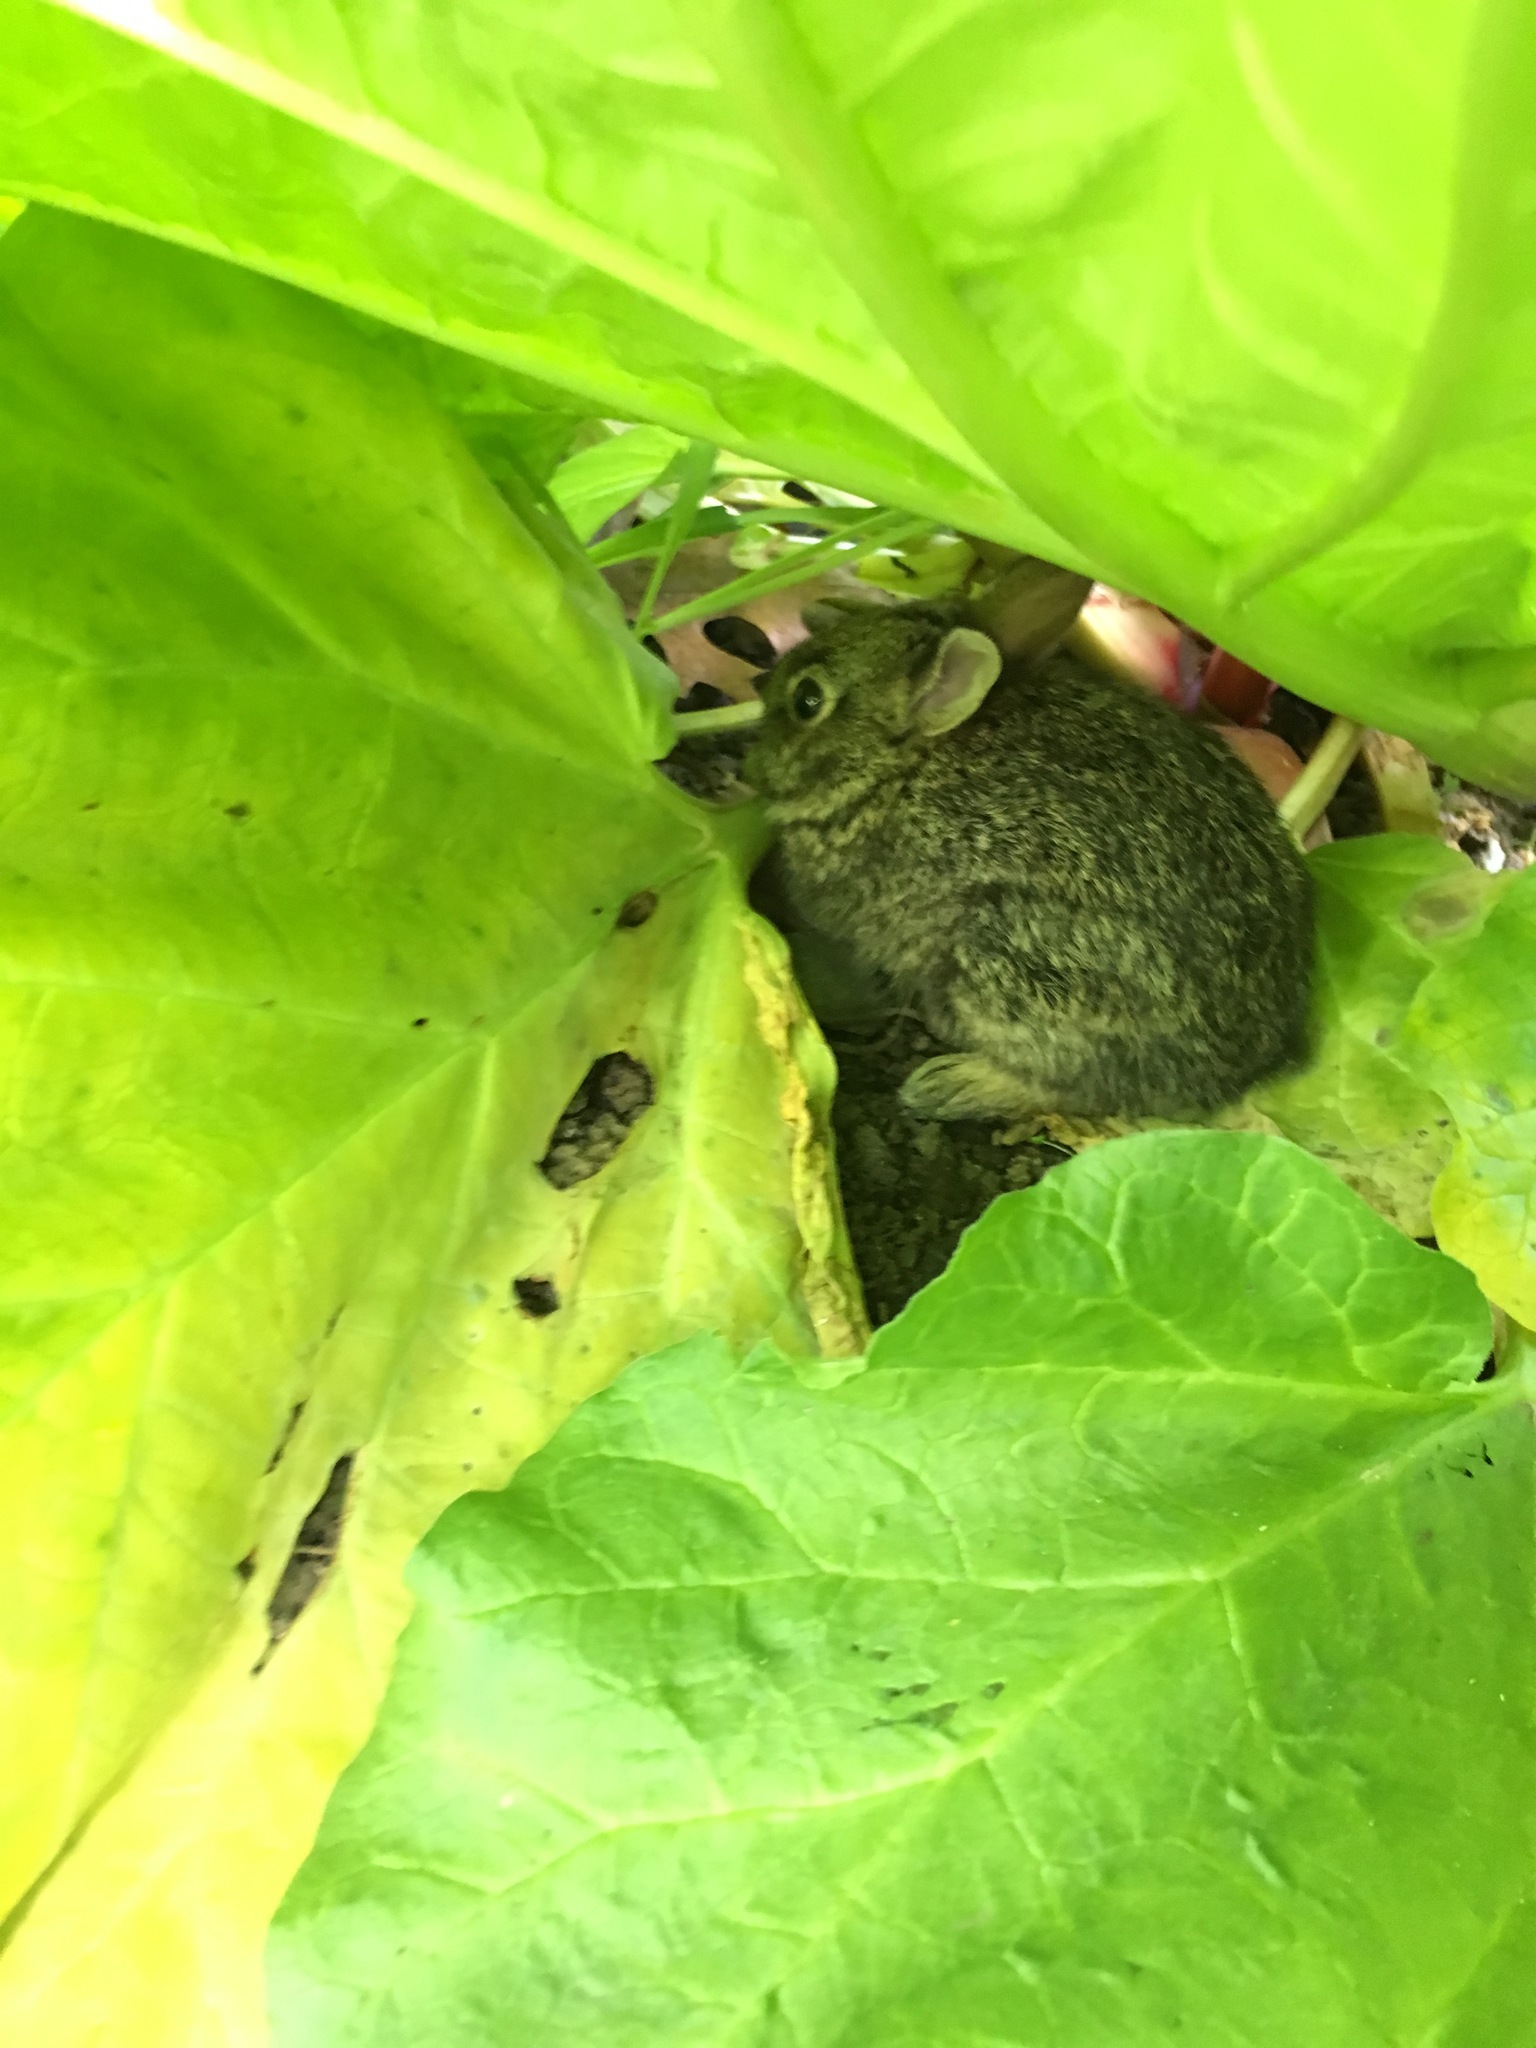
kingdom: Animalia
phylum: Chordata
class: Mammalia
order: Lagomorpha
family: Leporidae
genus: Sylvilagus
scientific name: Sylvilagus floridanus
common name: Eastern cottontail
